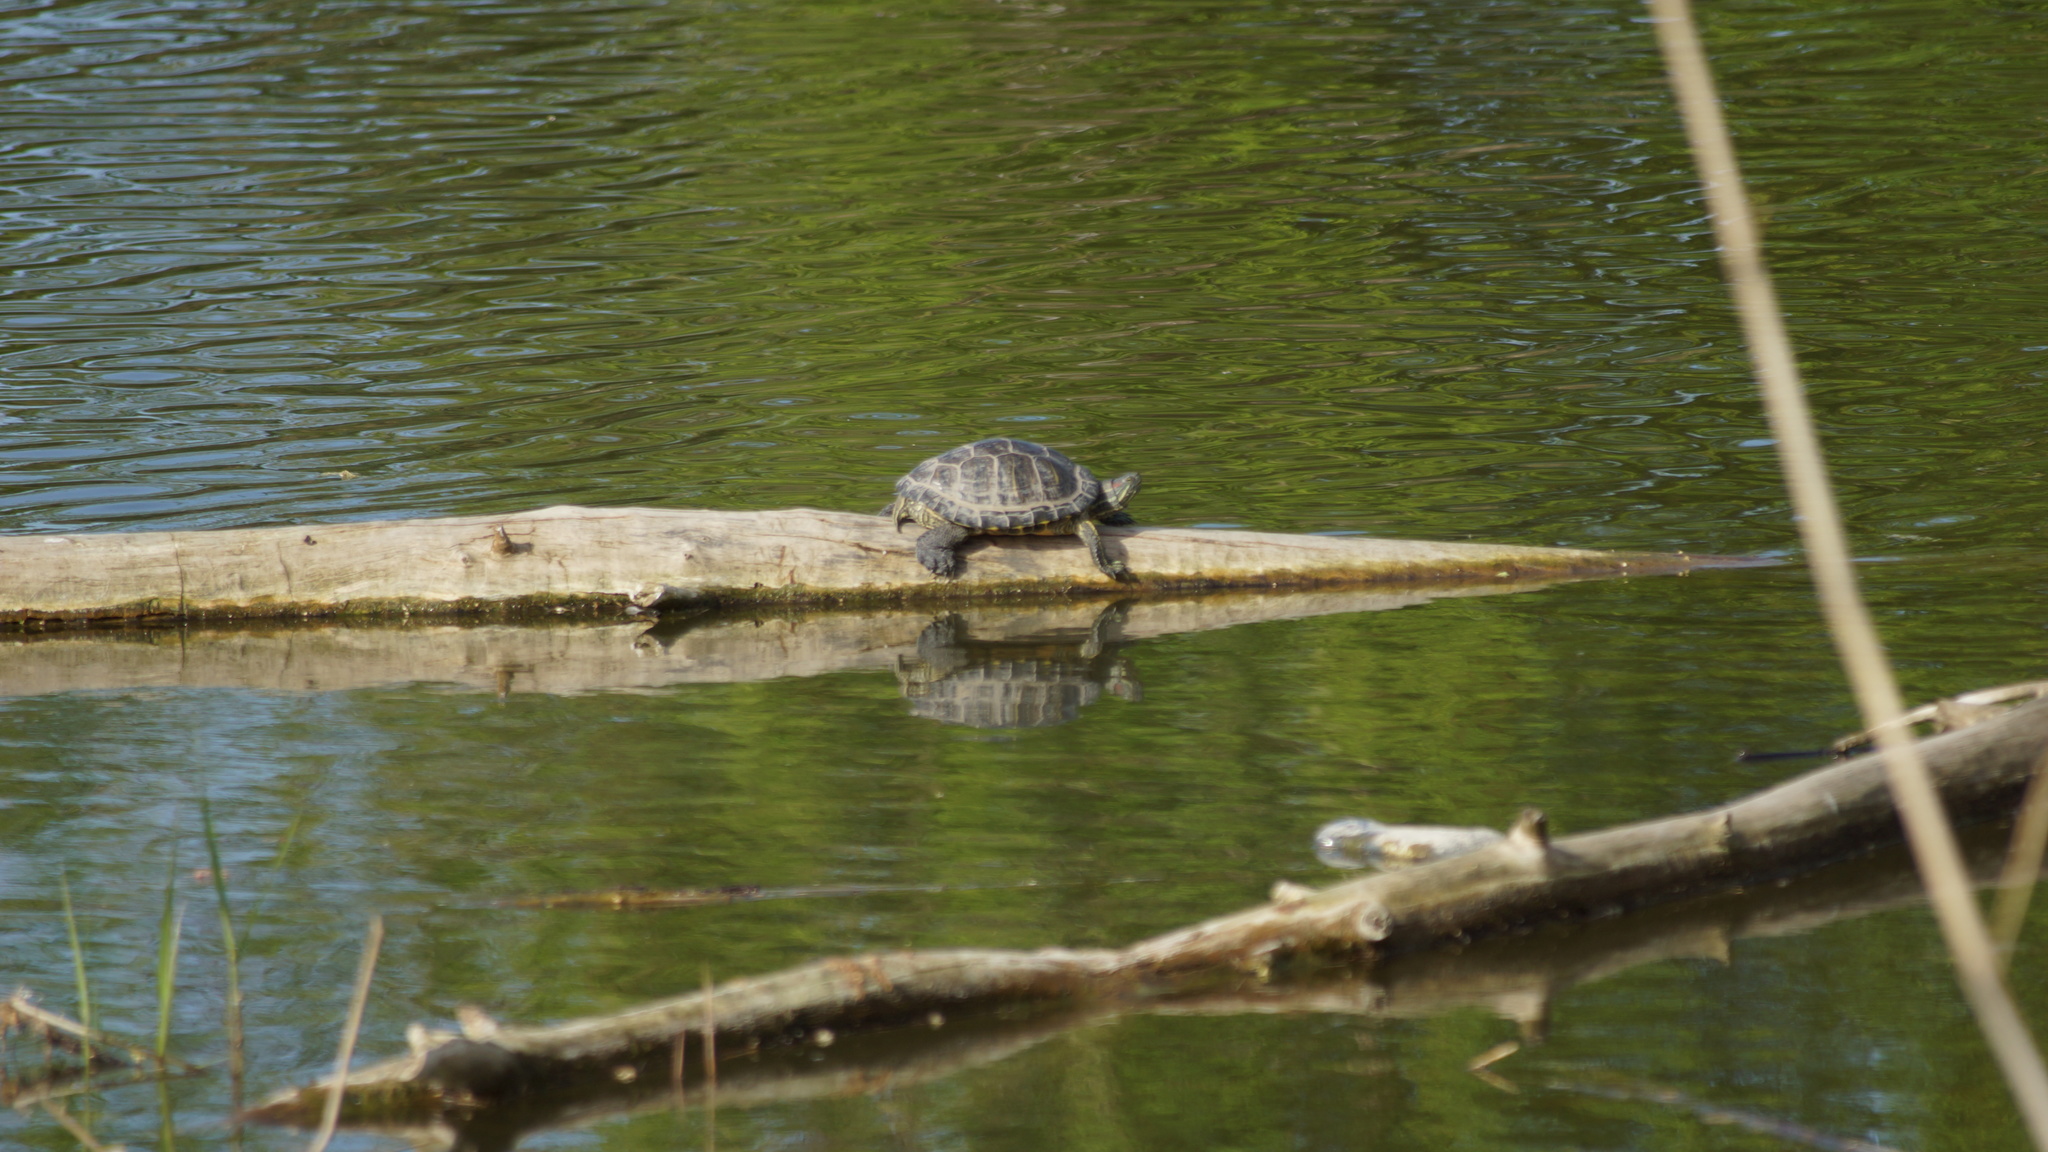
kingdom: Animalia
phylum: Chordata
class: Testudines
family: Emydidae
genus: Trachemys
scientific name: Trachemys scripta
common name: Slider
